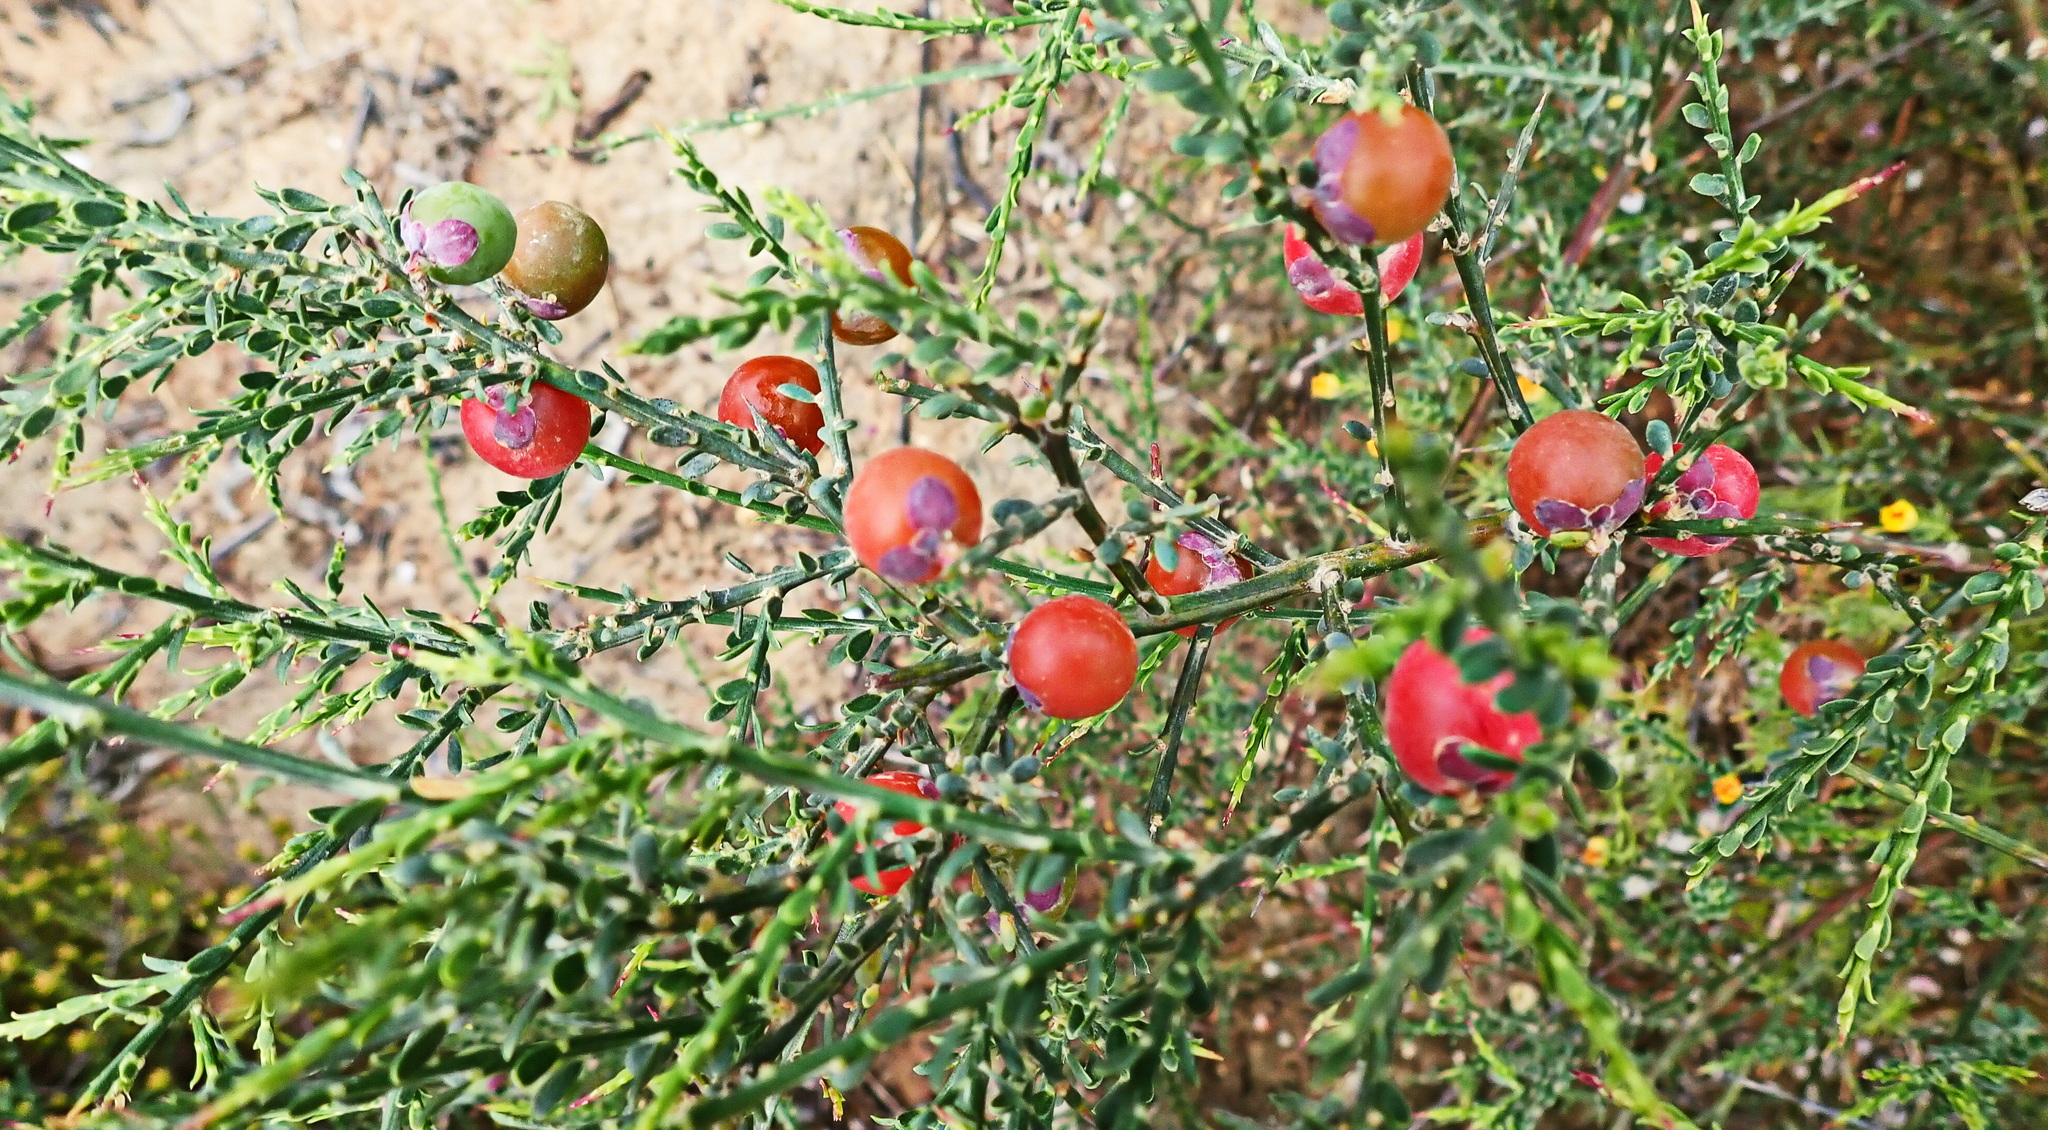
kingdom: Plantae
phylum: Tracheophyta
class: Magnoliopsida
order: Fabales
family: Polygalaceae
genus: Muraltia
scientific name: Muraltia spinosa
